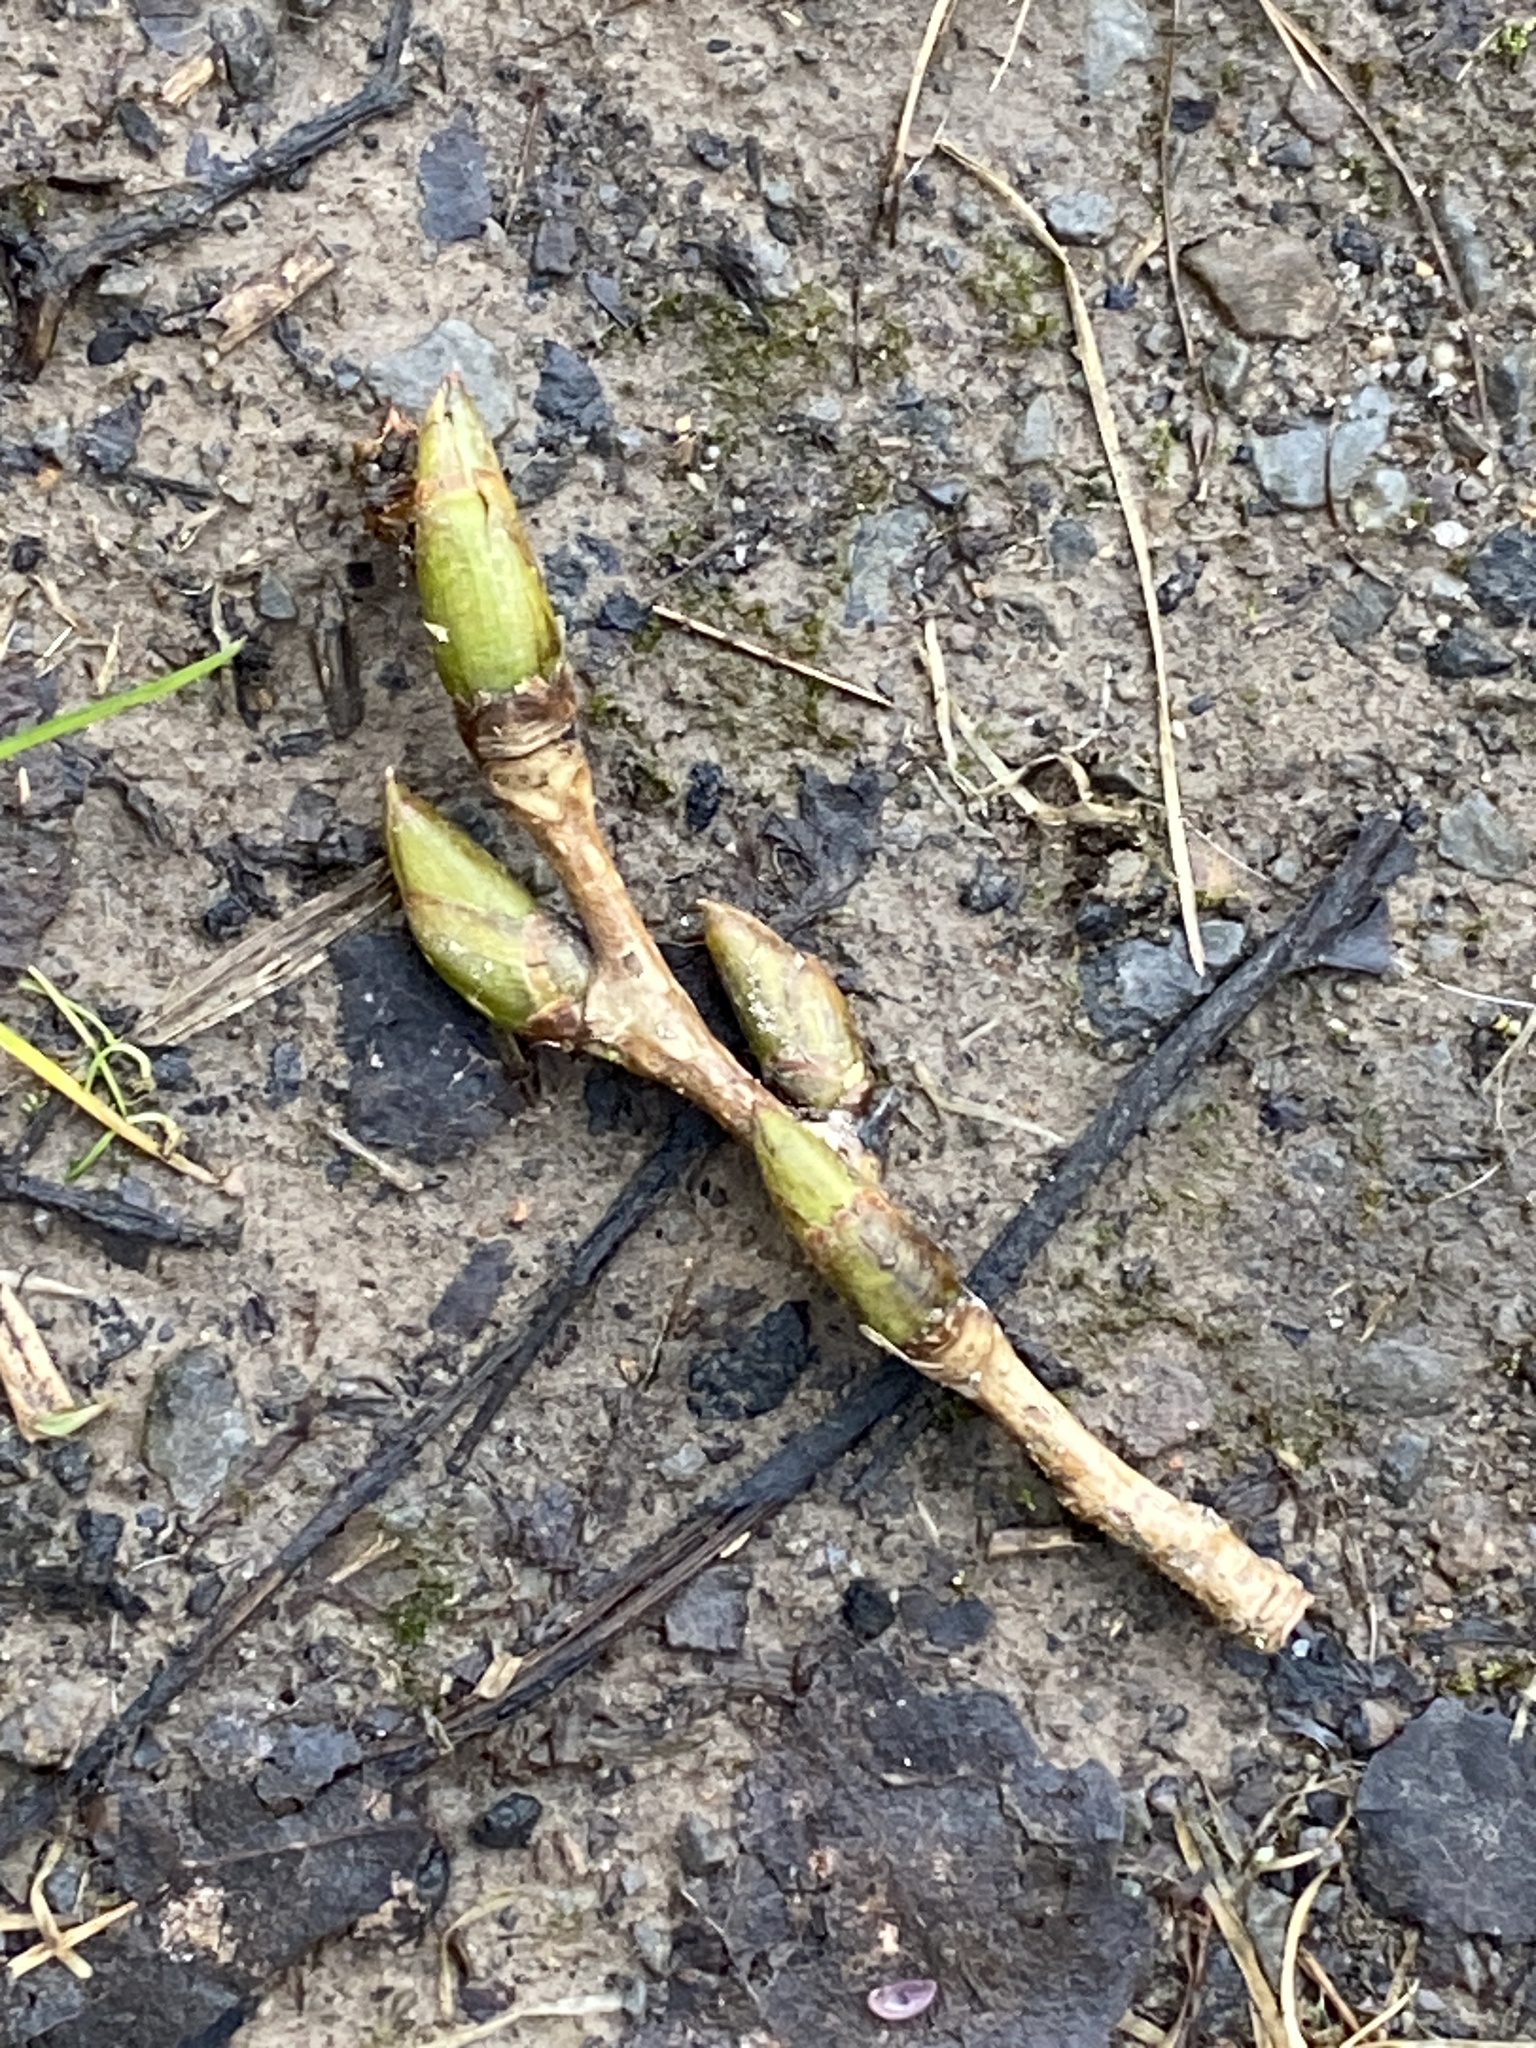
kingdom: Plantae
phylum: Tracheophyta
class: Magnoliopsida
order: Malpighiales
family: Salicaceae
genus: Populus
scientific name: Populus deltoides
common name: Eastern cottonwood
